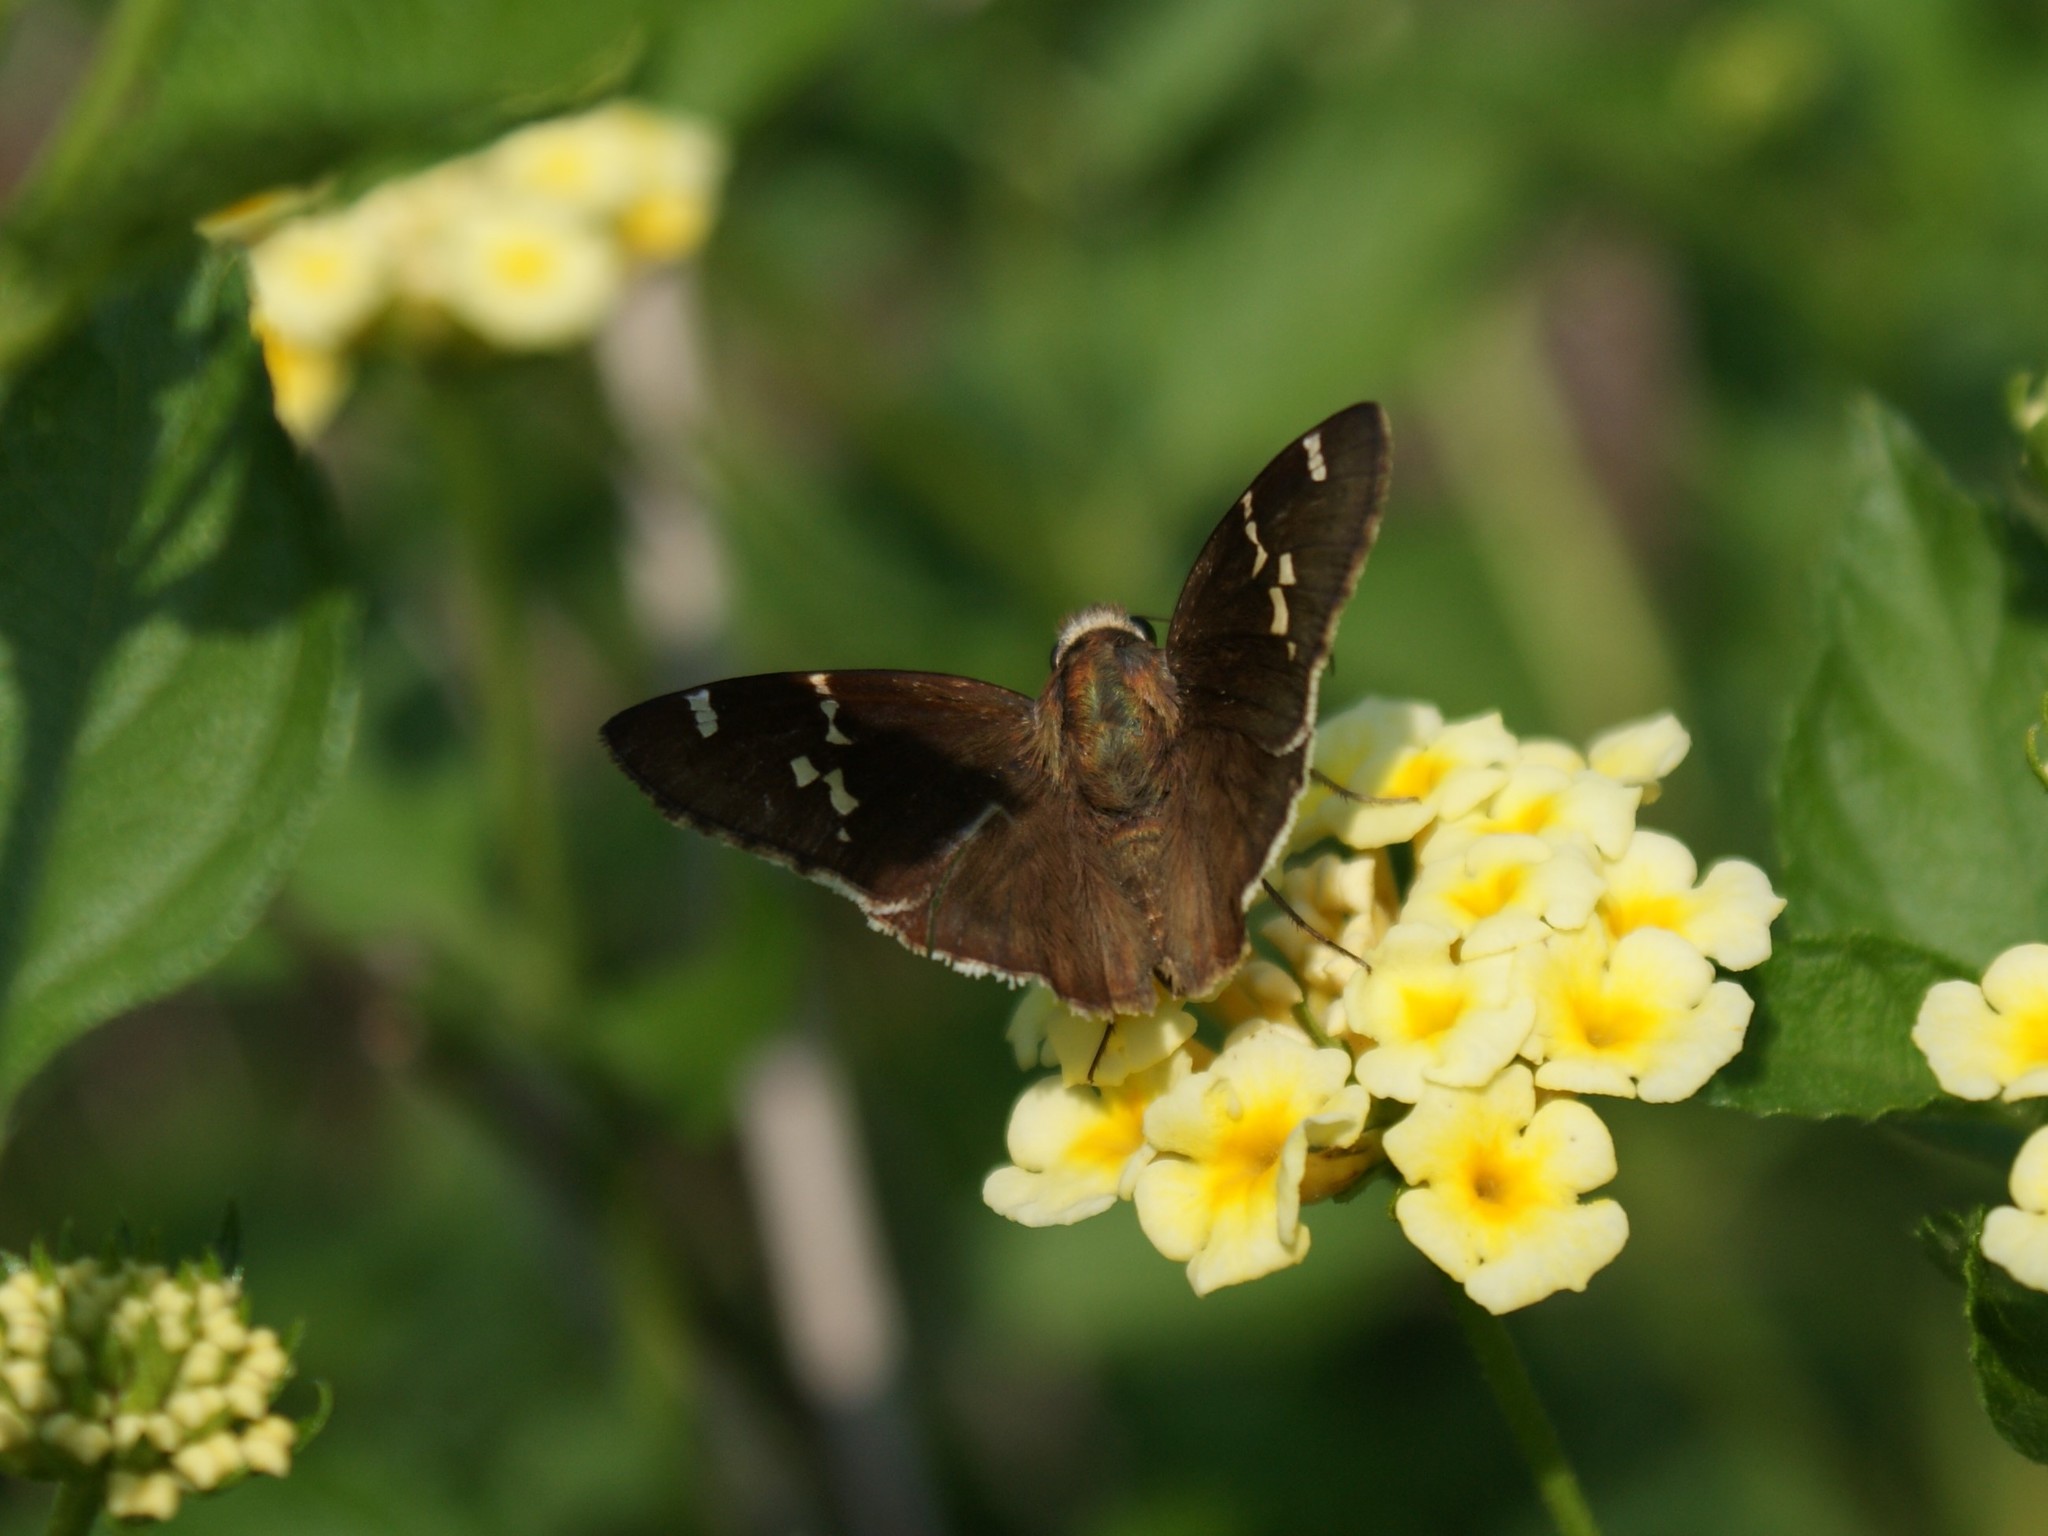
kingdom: Animalia
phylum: Arthropoda
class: Insecta
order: Lepidoptera
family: Hesperiidae
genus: Thorybes
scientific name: Thorybes daunus
